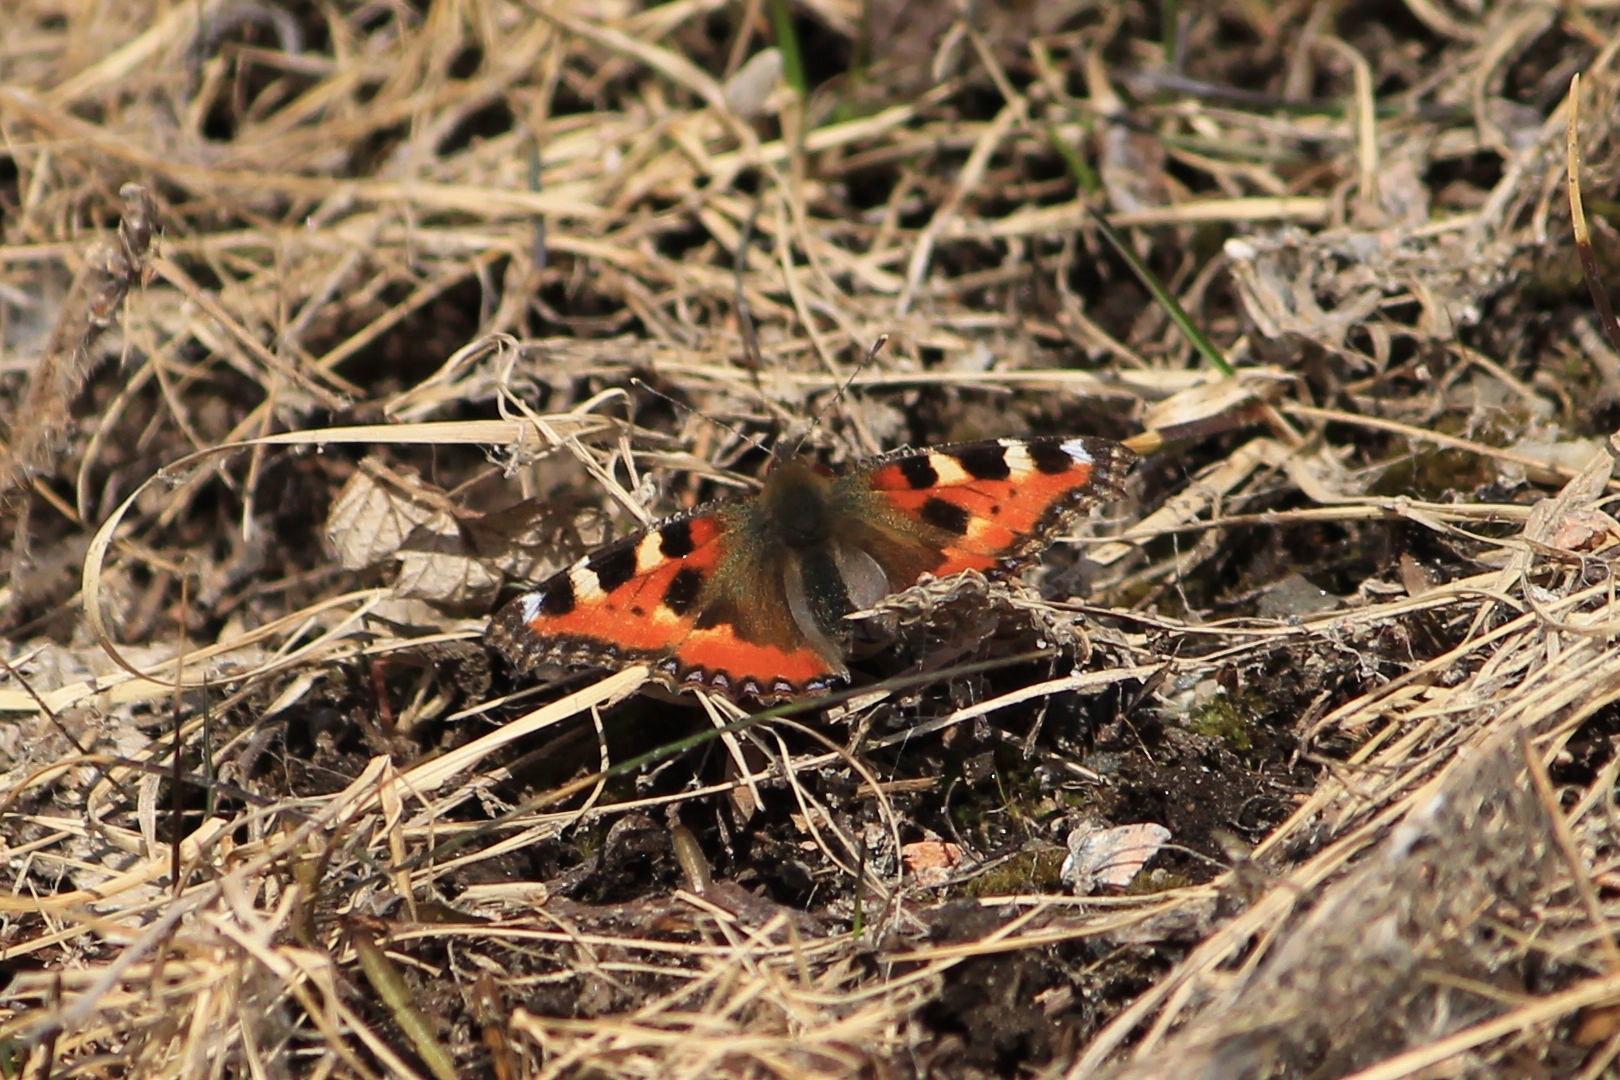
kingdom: Animalia
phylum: Arthropoda
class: Insecta
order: Lepidoptera
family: Nymphalidae
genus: Aglais
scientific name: Aglais urticae
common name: Small tortoiseshell
